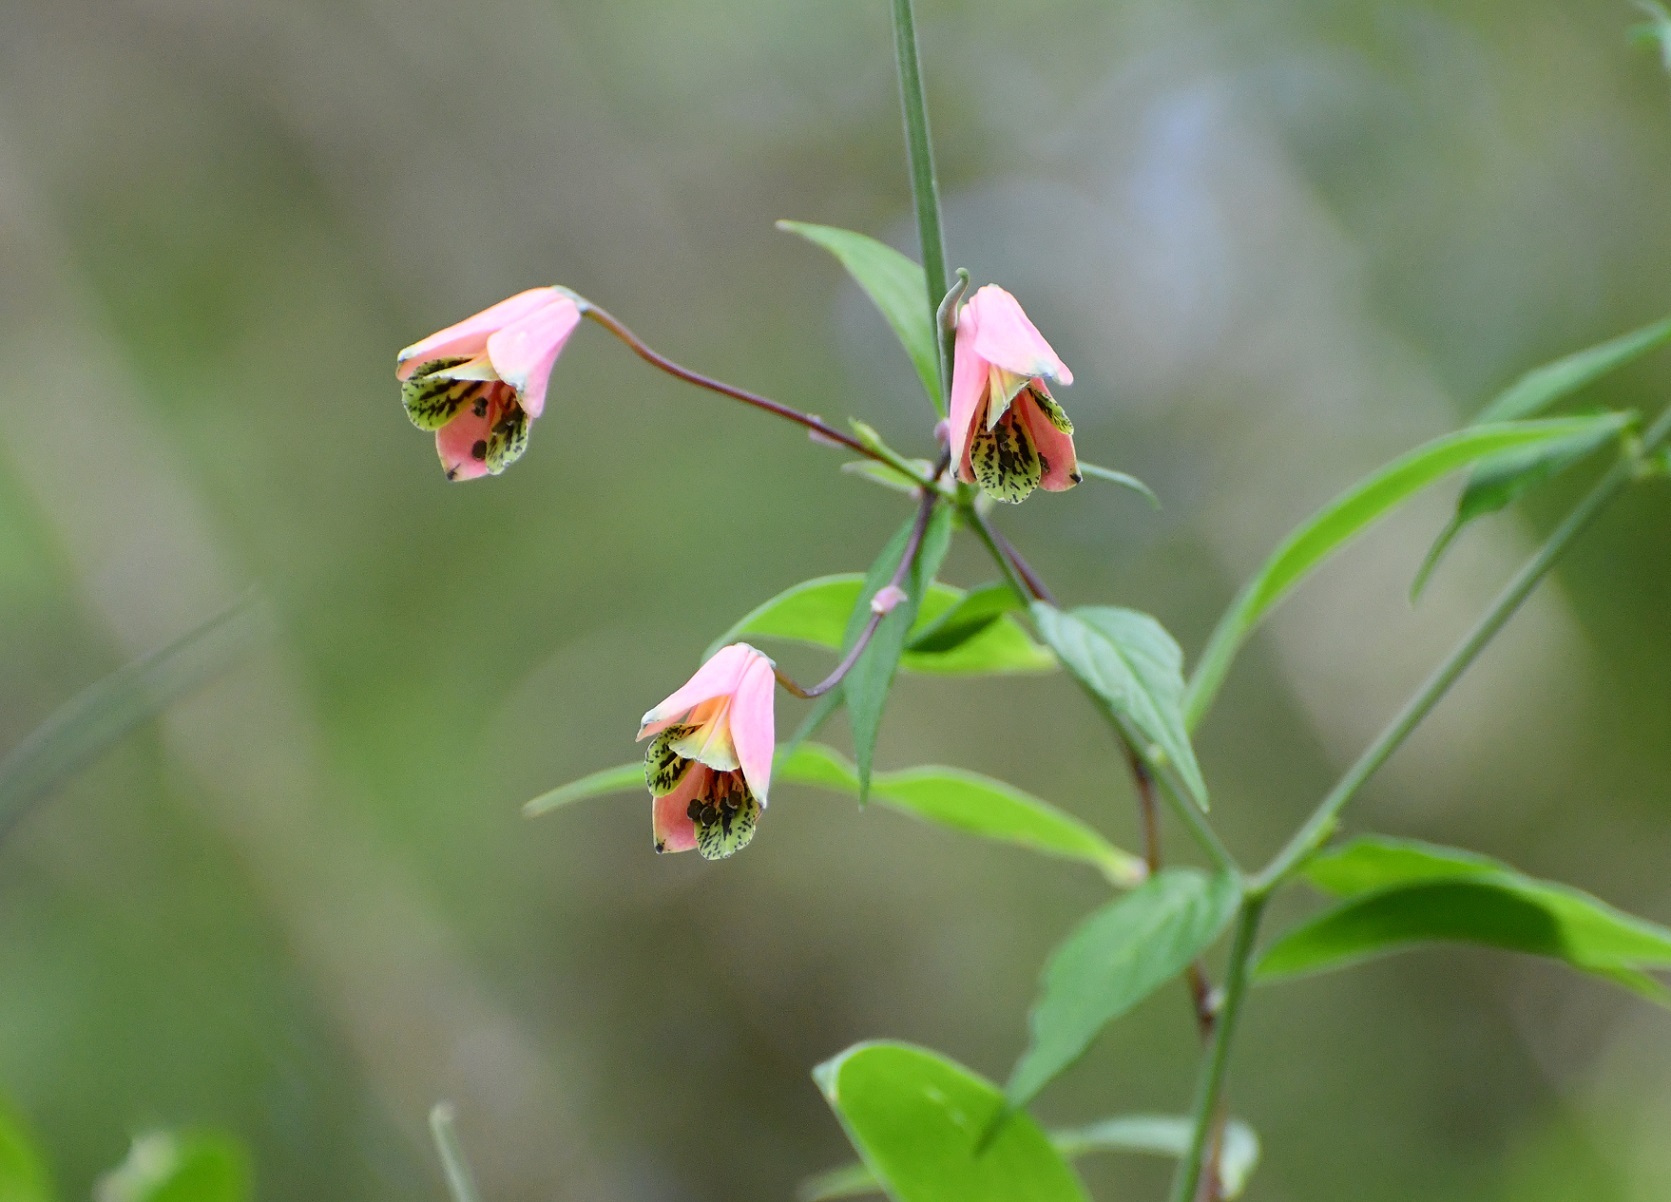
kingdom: Plantae
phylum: Tracheophyta
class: Liliopsida
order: Liliales
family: Alstroemeriaceae
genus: Bomarea
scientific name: Bomarea edulis
